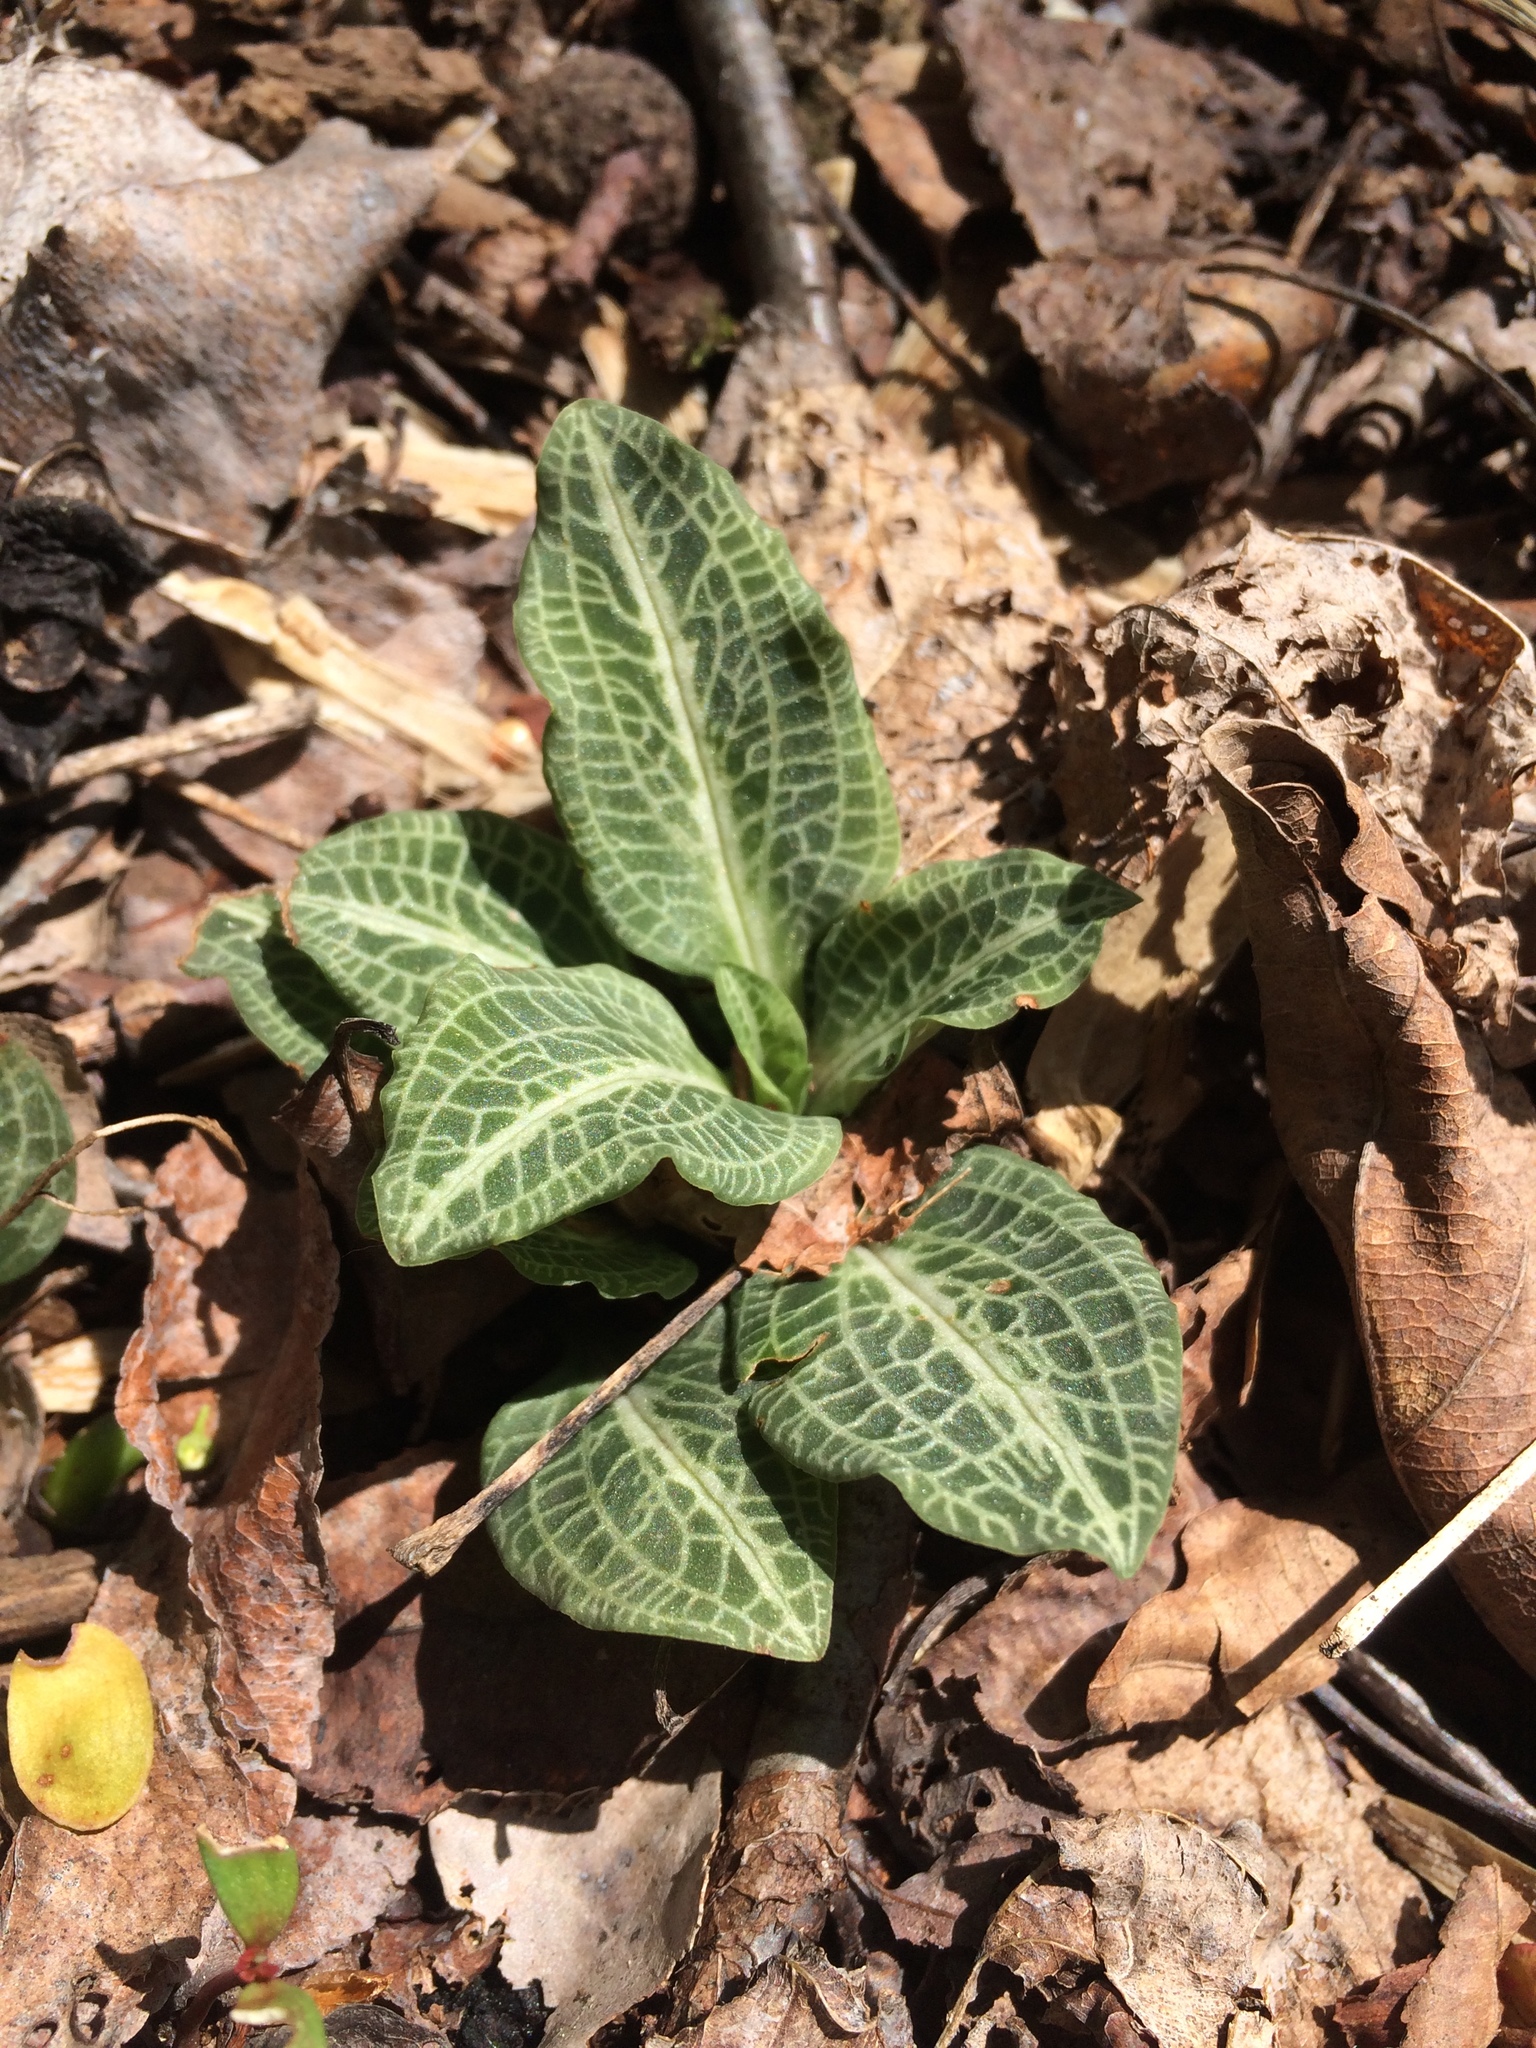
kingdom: Plantae
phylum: Tracheophyta
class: Liliopsida
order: Asparagales
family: Orchidaceae
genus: Goodyera
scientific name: Goodyera pubescens
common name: Downy rattlesnake-plantain
